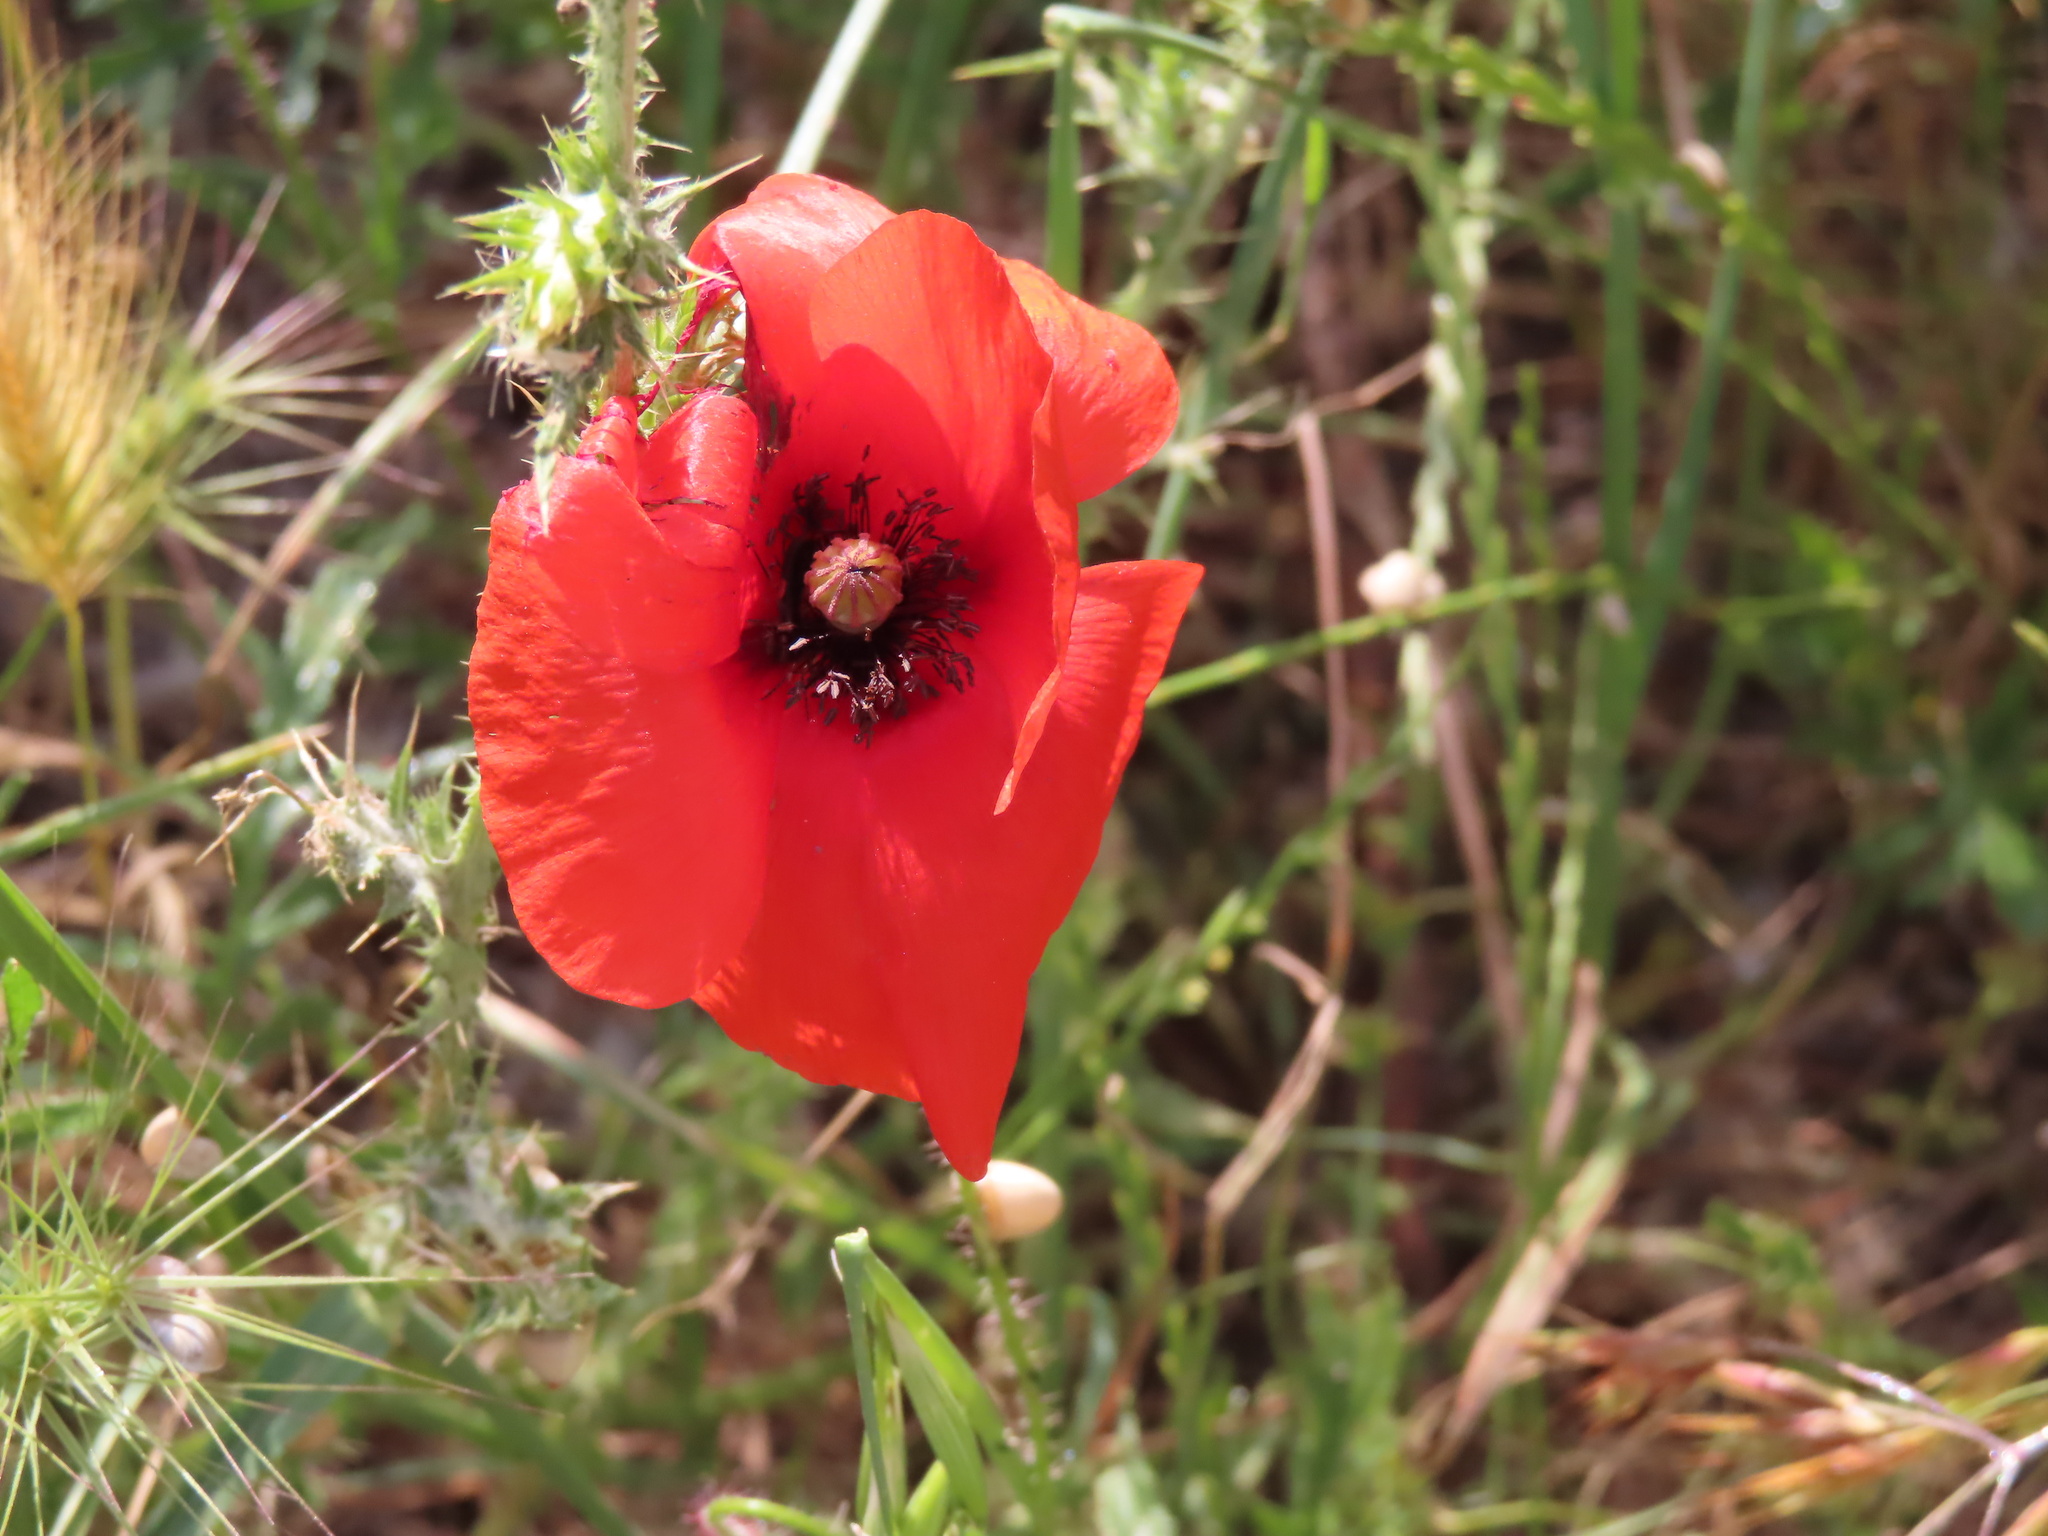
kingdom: Plantae
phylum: Tracheophyta
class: Magnoliopsida
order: Ranunculales
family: Papaveraceae
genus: Papaver
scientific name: Papaver rhoeas
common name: Corn poppy
